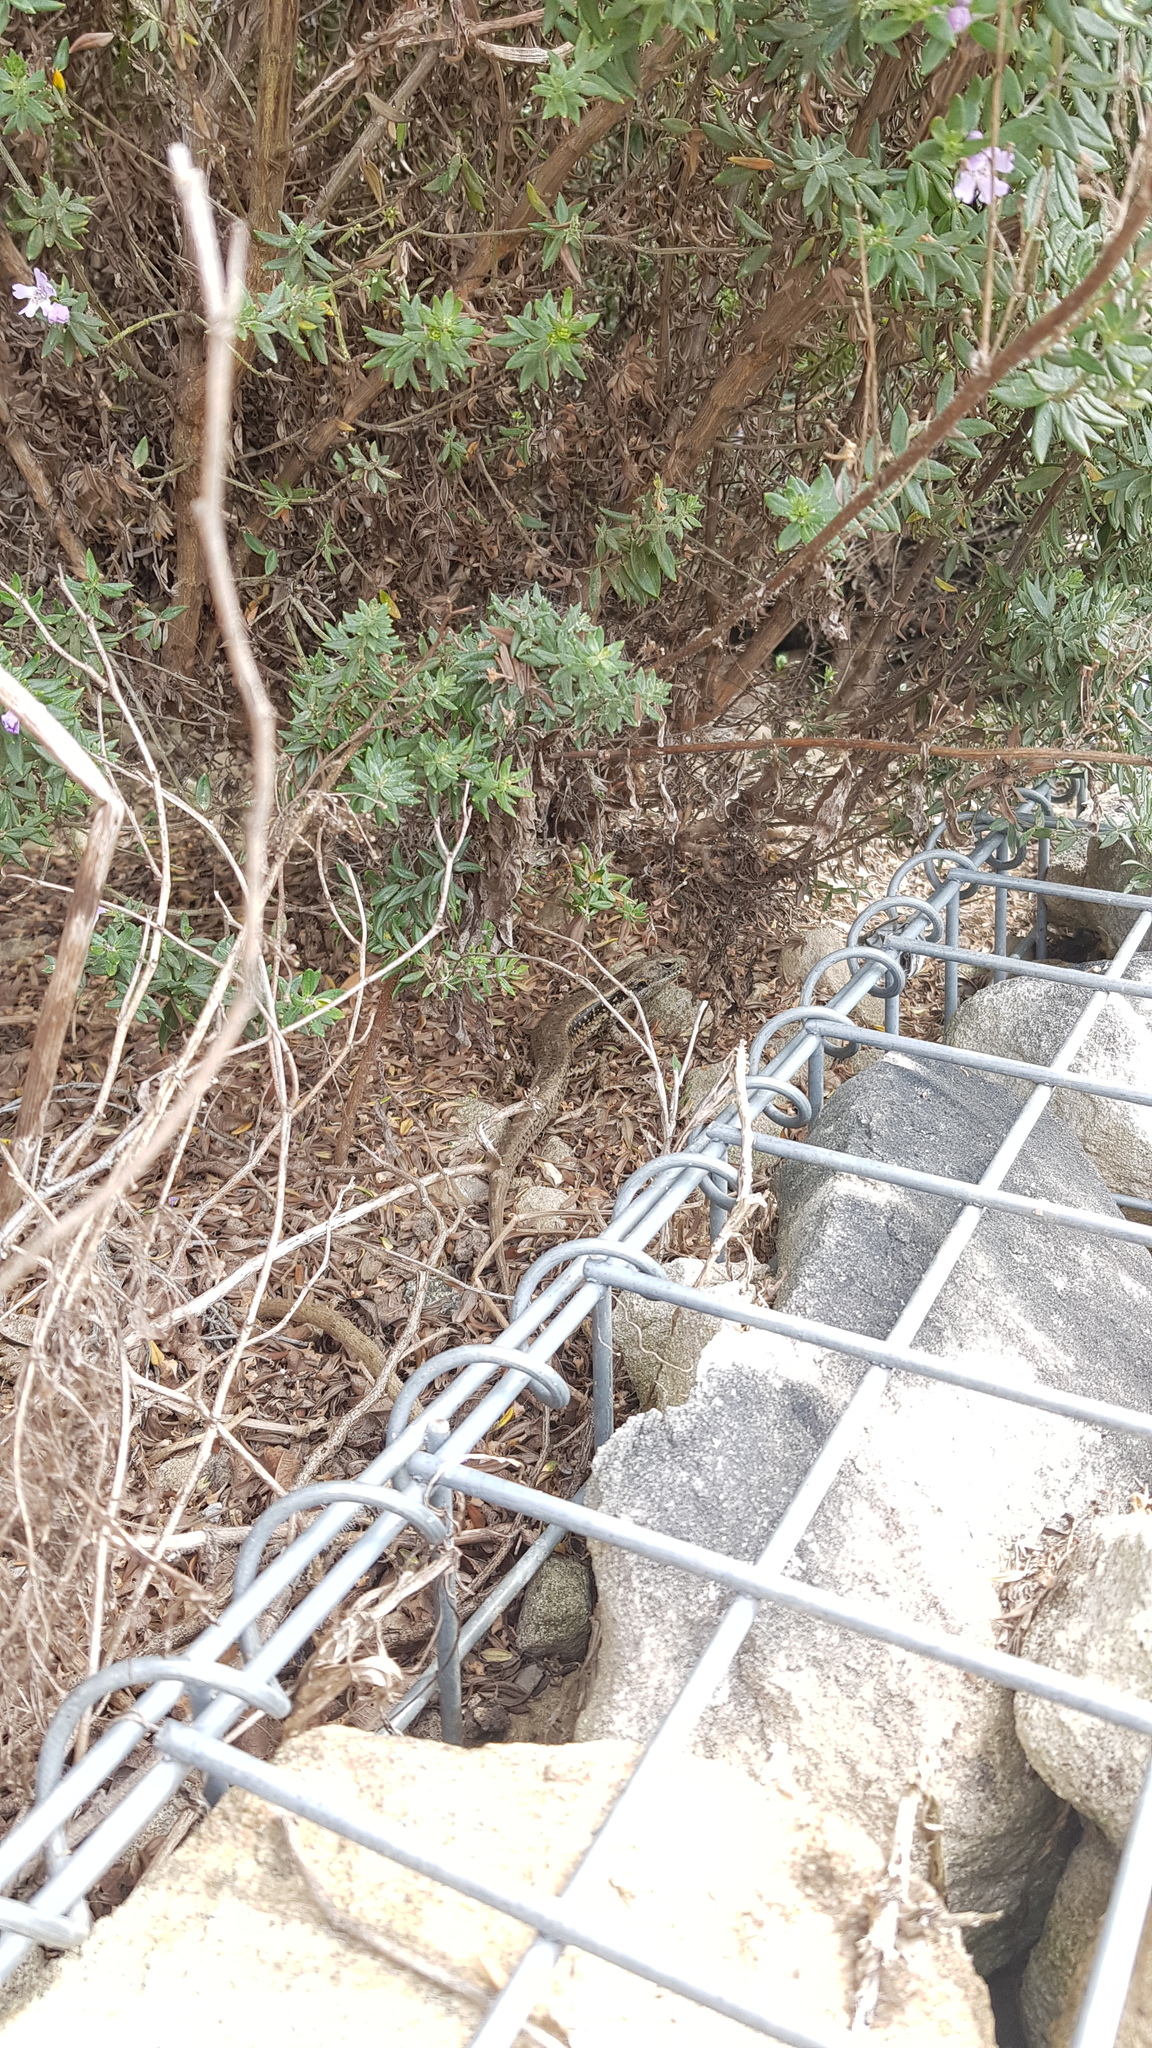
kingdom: Animalia
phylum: Chordata
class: Squamata
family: Scincidae
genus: Eulamprus
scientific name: Eulamprus quoyii
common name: Eastern water skink
